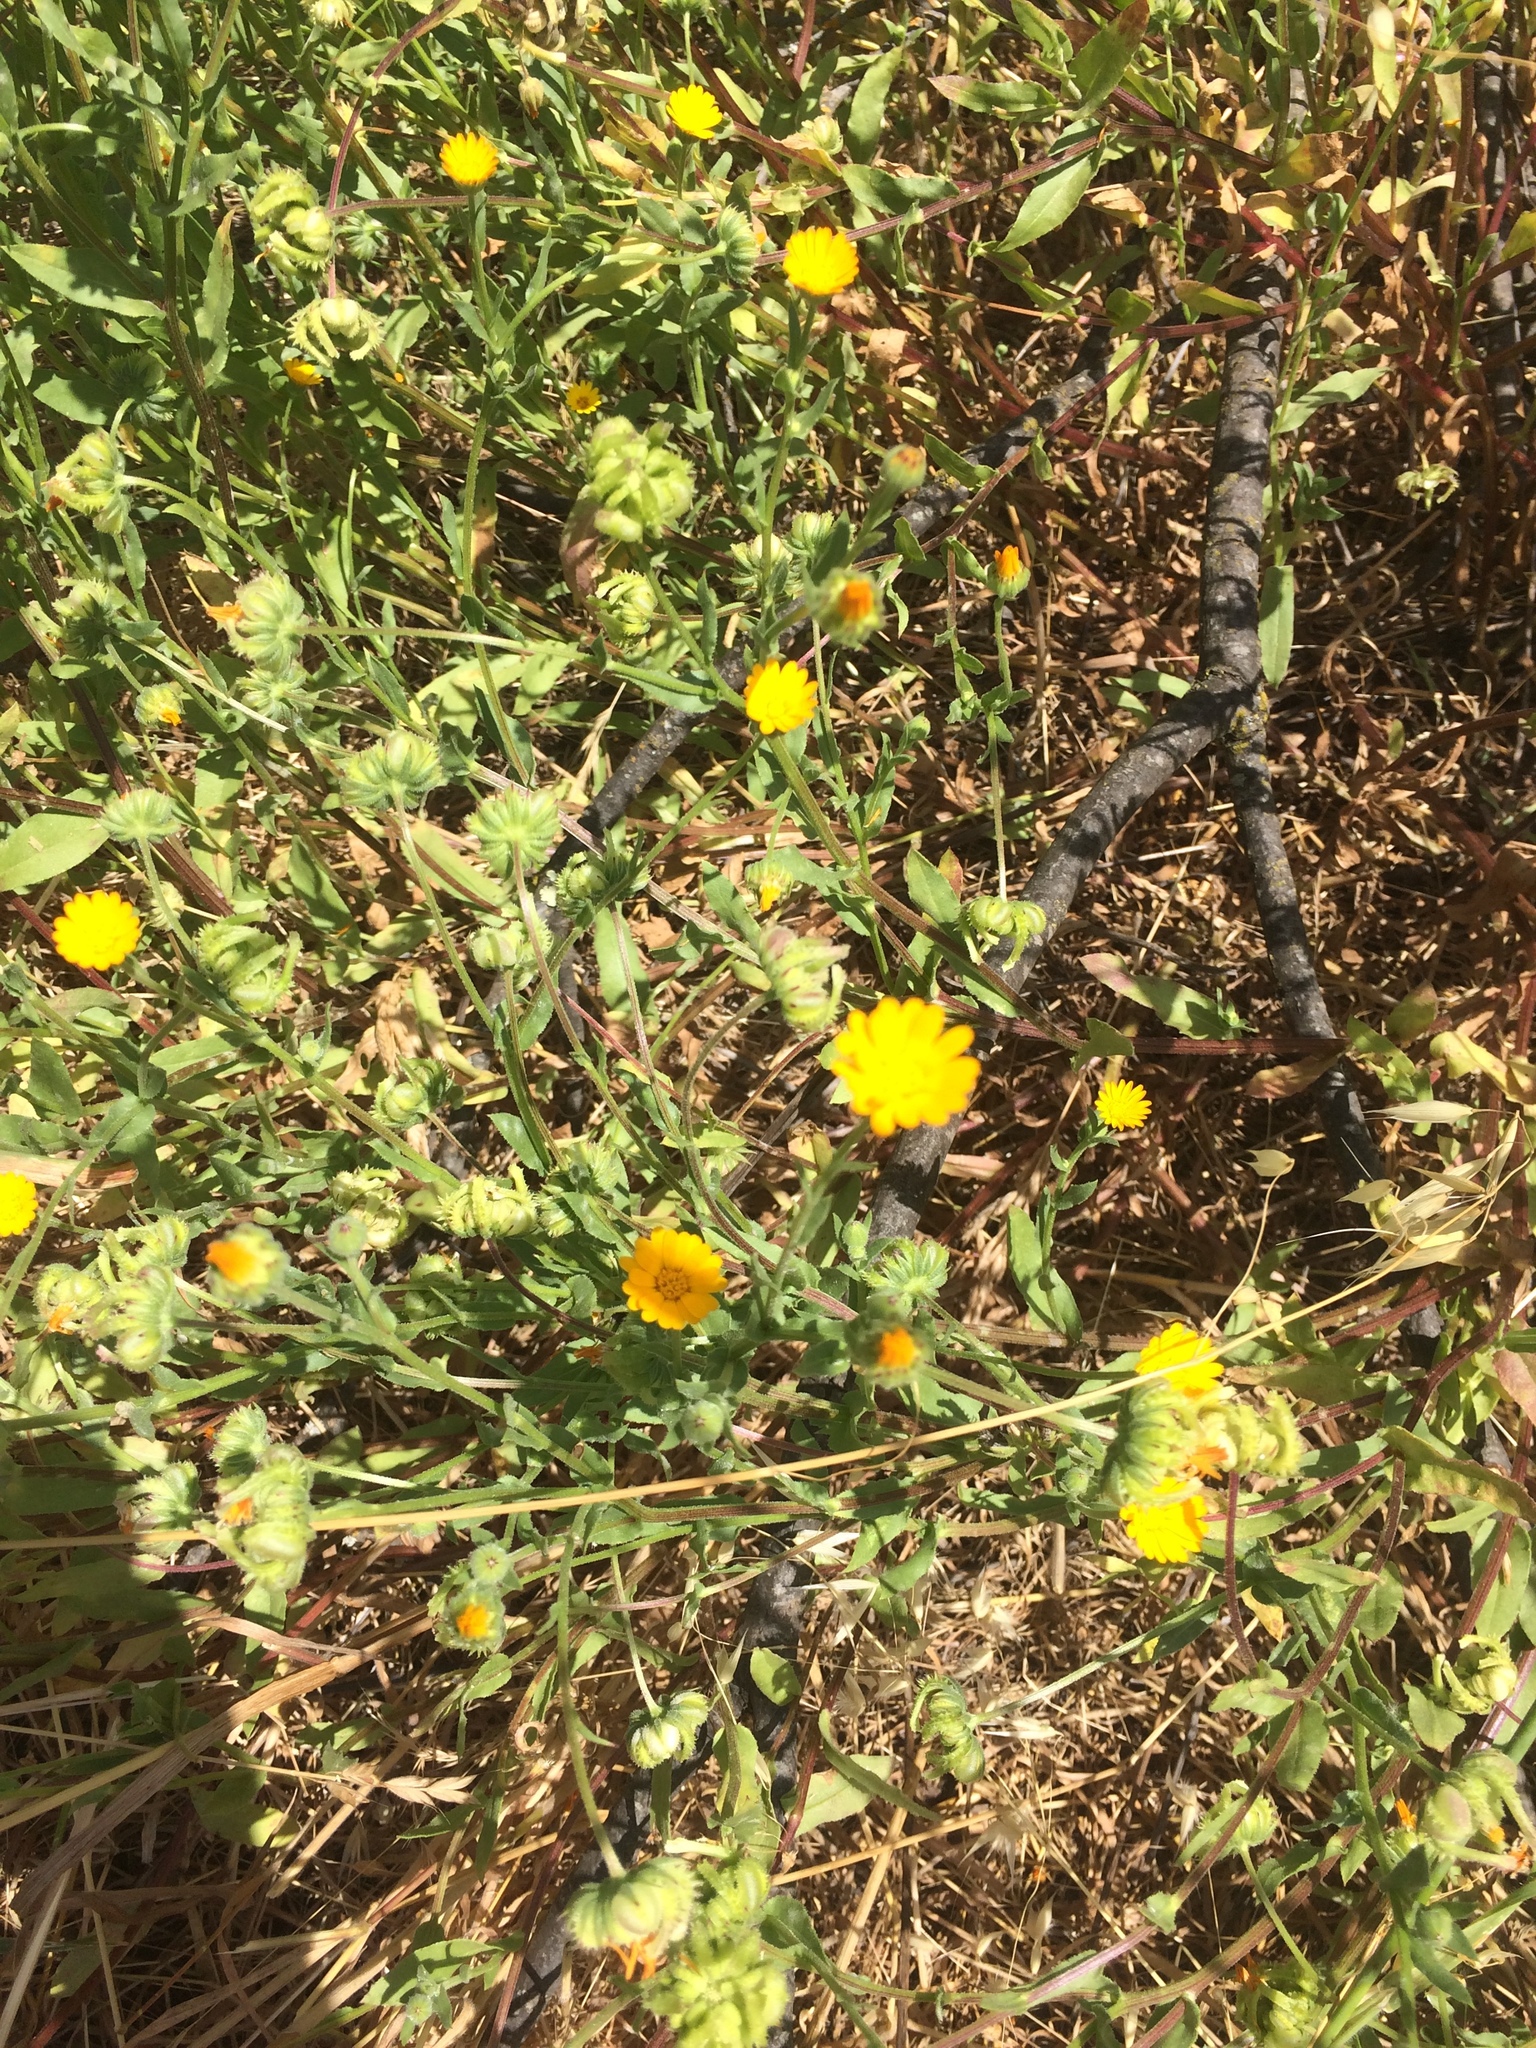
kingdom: Plantae
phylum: Tracheophyta
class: Magnoliopsida
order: Asterales
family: Asteraceae
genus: Calendula
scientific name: Calendula arvensis
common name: Field marigold
